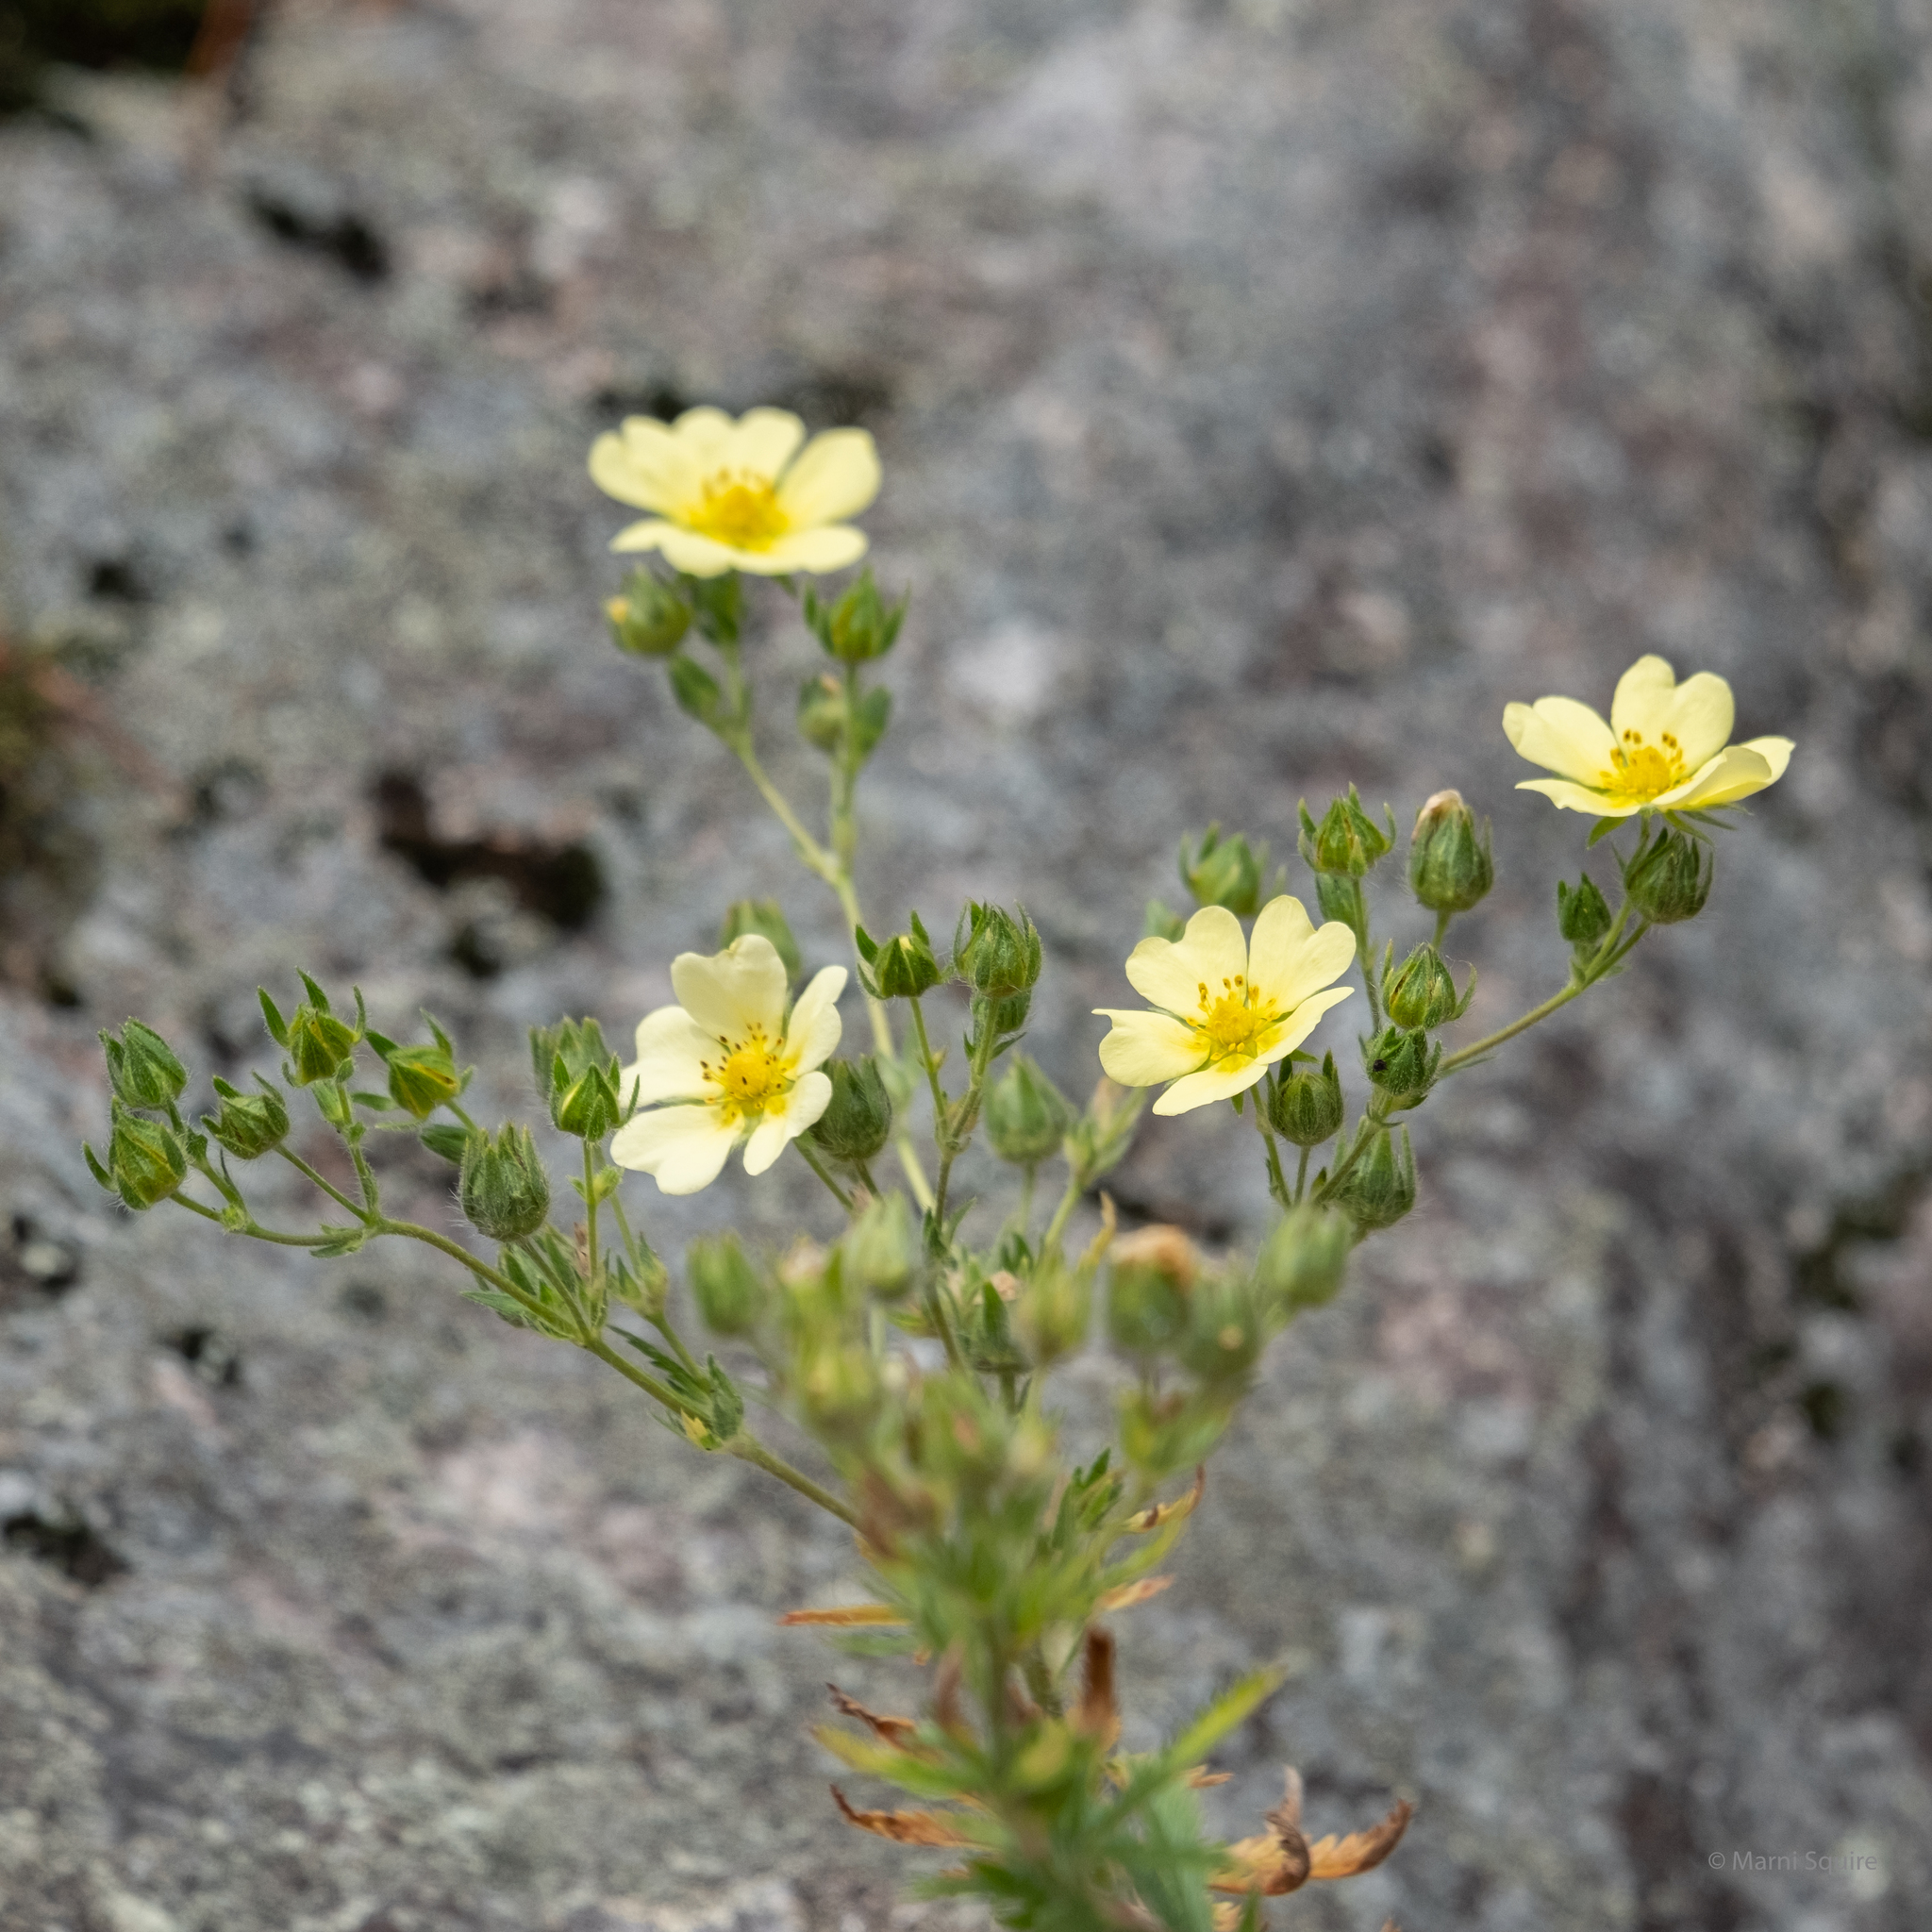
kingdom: Plantae
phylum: Tracheophyta
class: Magnoliopsida
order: Rosales
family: Rosaceae
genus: Potentilla
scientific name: Potentilla recta
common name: Sulphur cinquefoil
